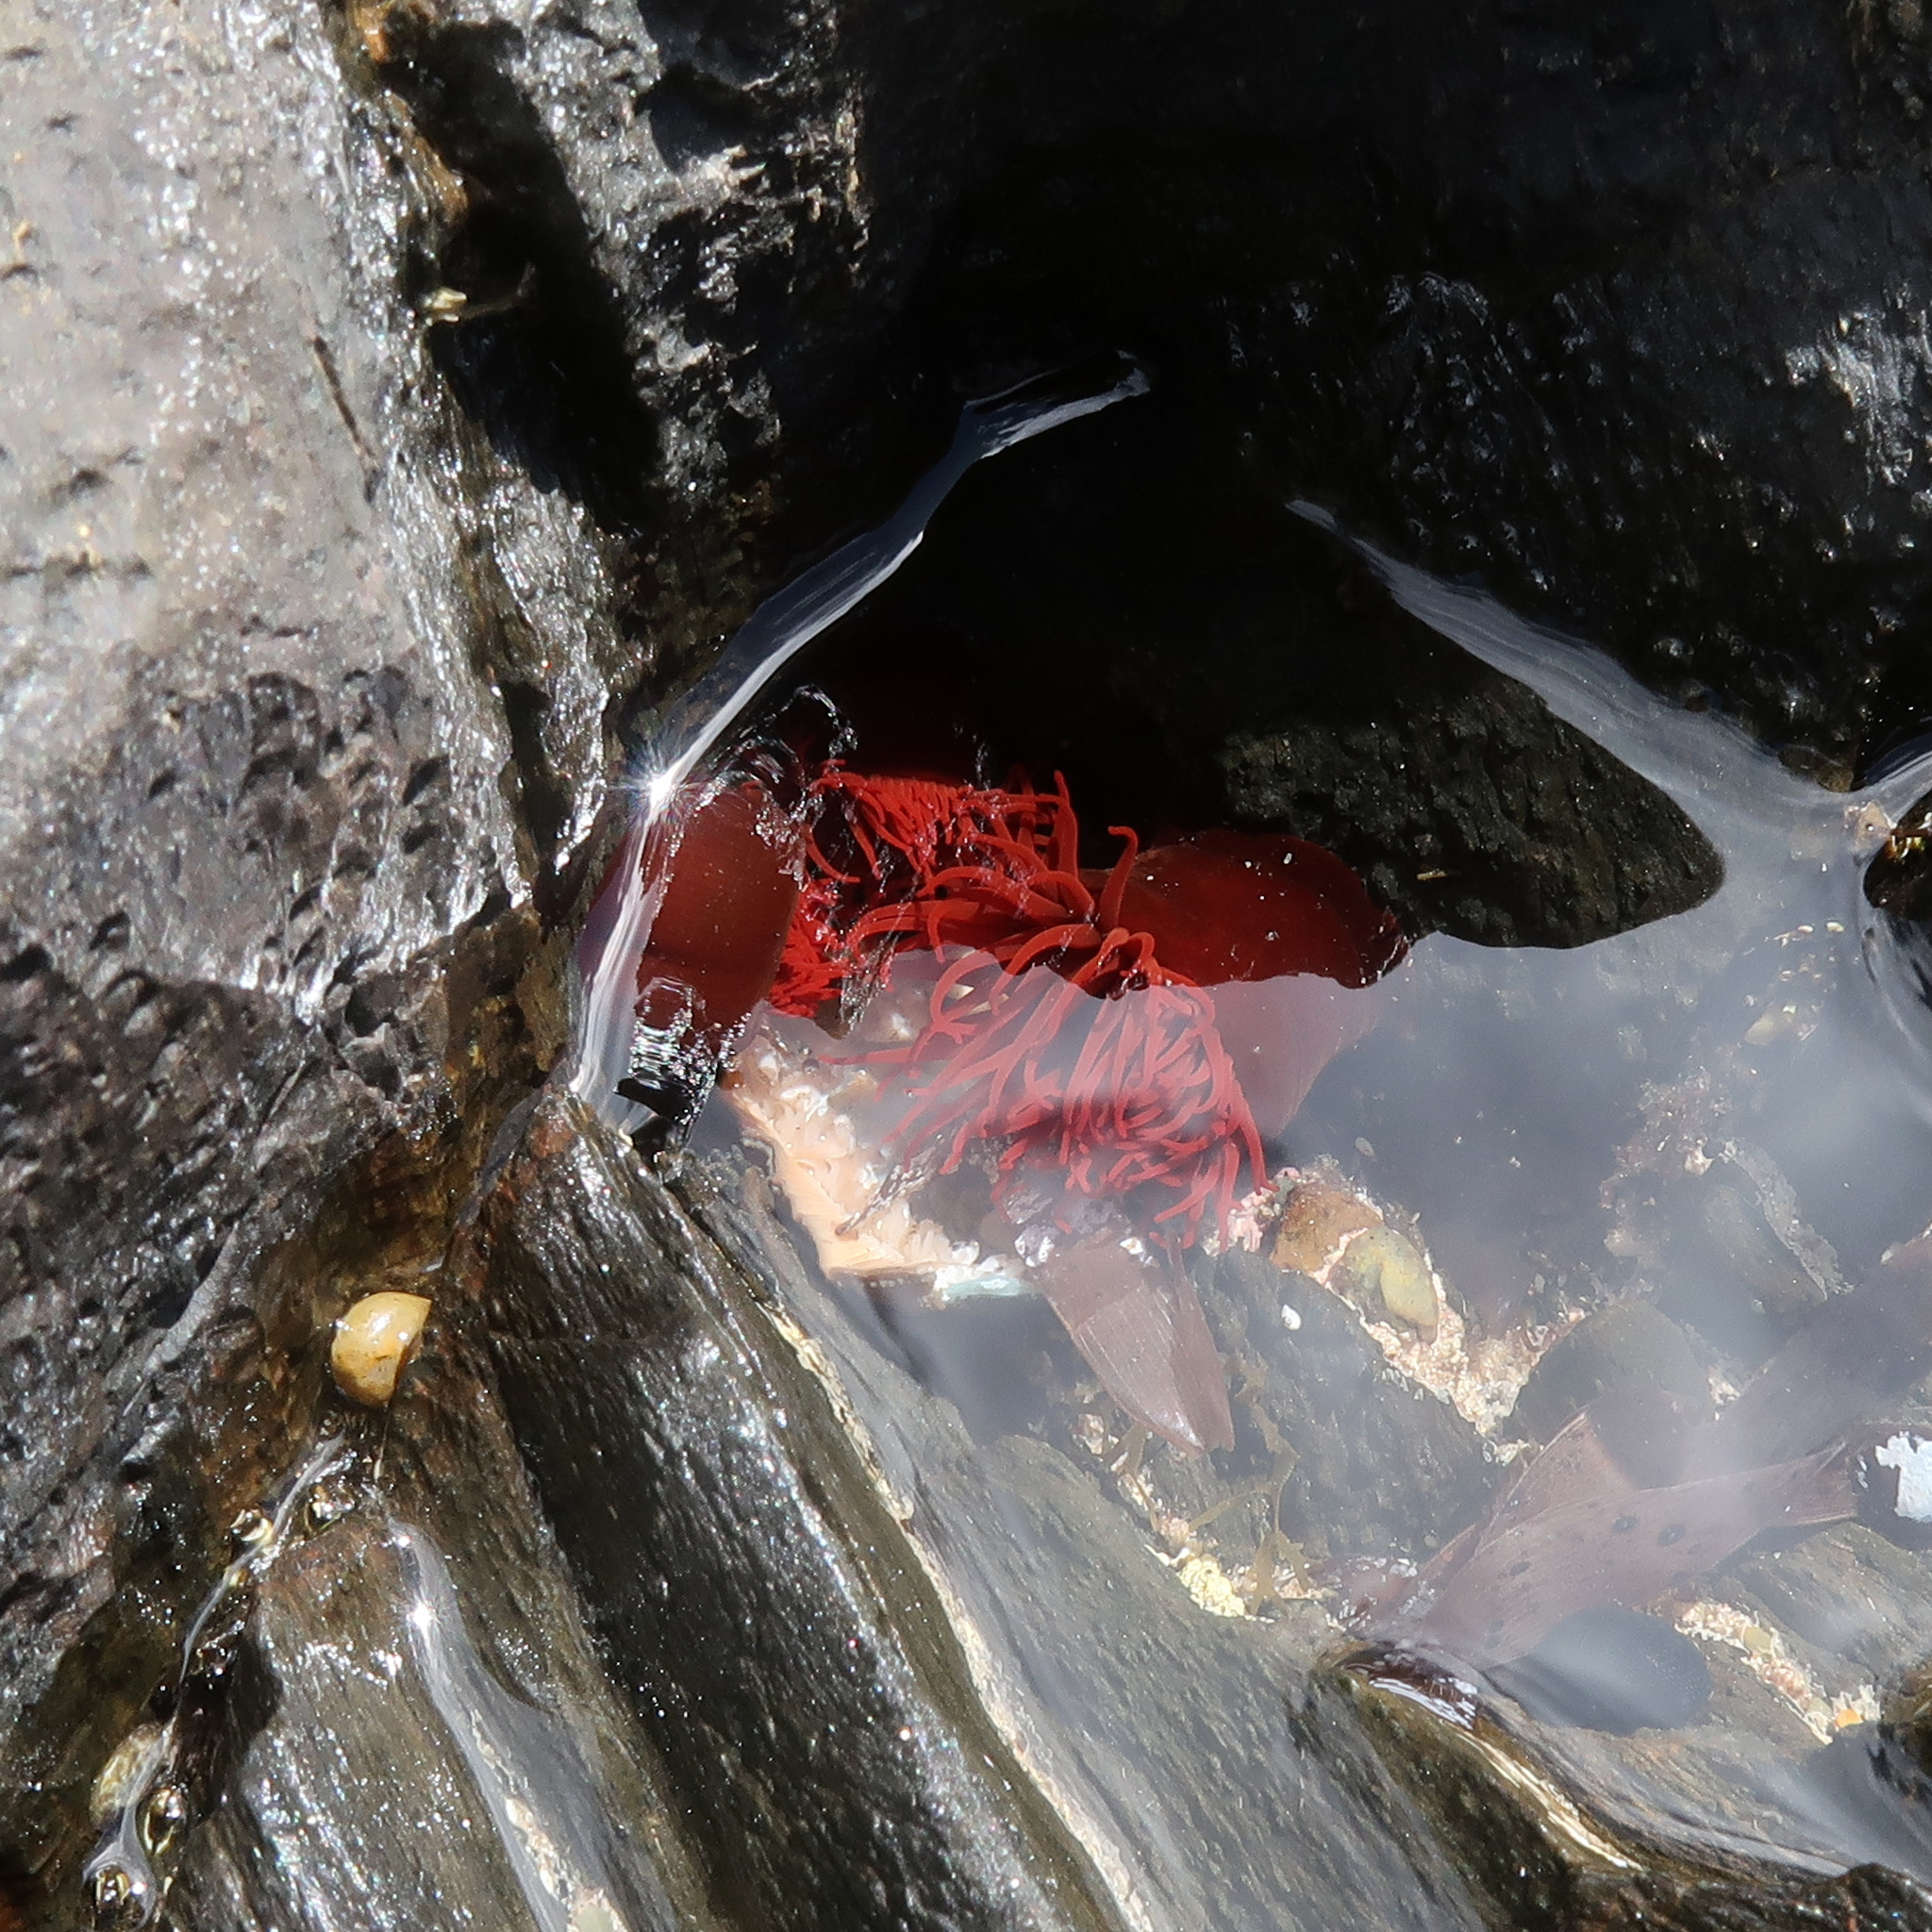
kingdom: Animalia
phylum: Cnidaria
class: Anthozoa
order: Actiniaria
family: Actiniidae
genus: Actinia
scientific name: Actinia tenebrosa
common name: Waratah anemone
